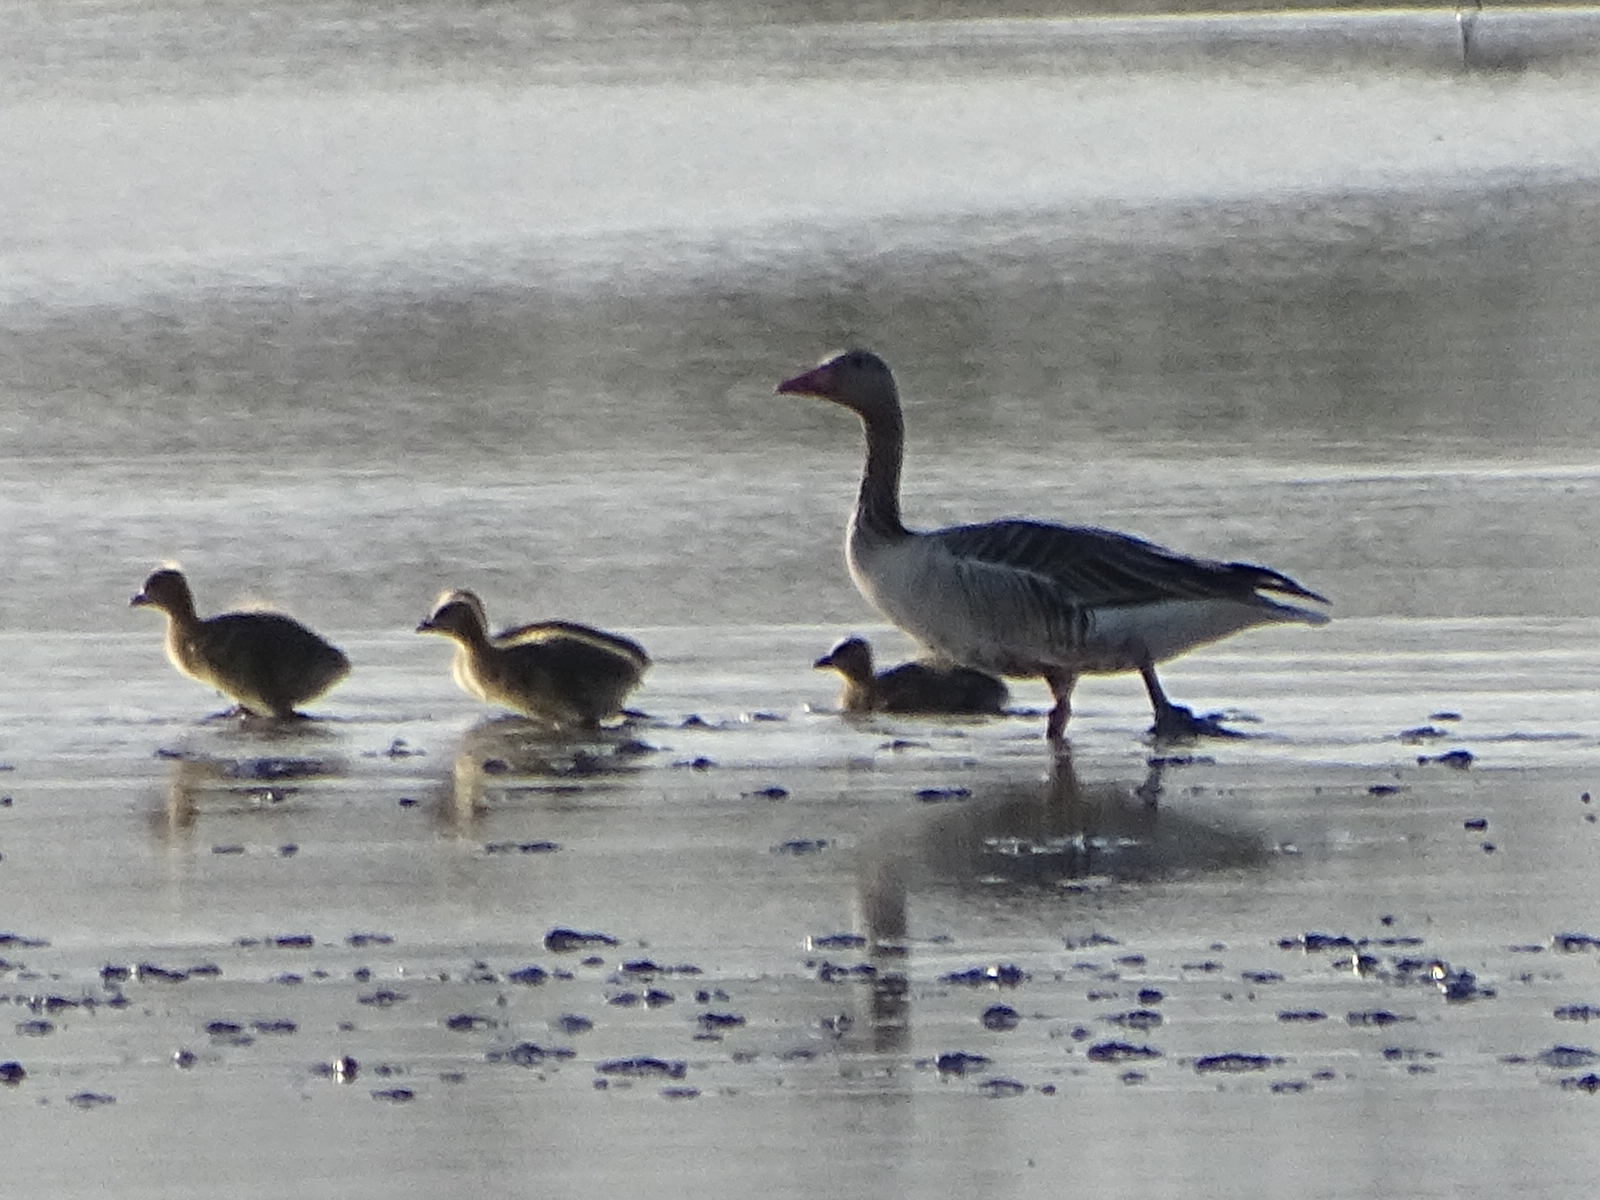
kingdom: Animalia
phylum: Chordata
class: Aves
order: Anseriformes
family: Anatidae
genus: Anser
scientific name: Anser anser
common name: Greylag goose
